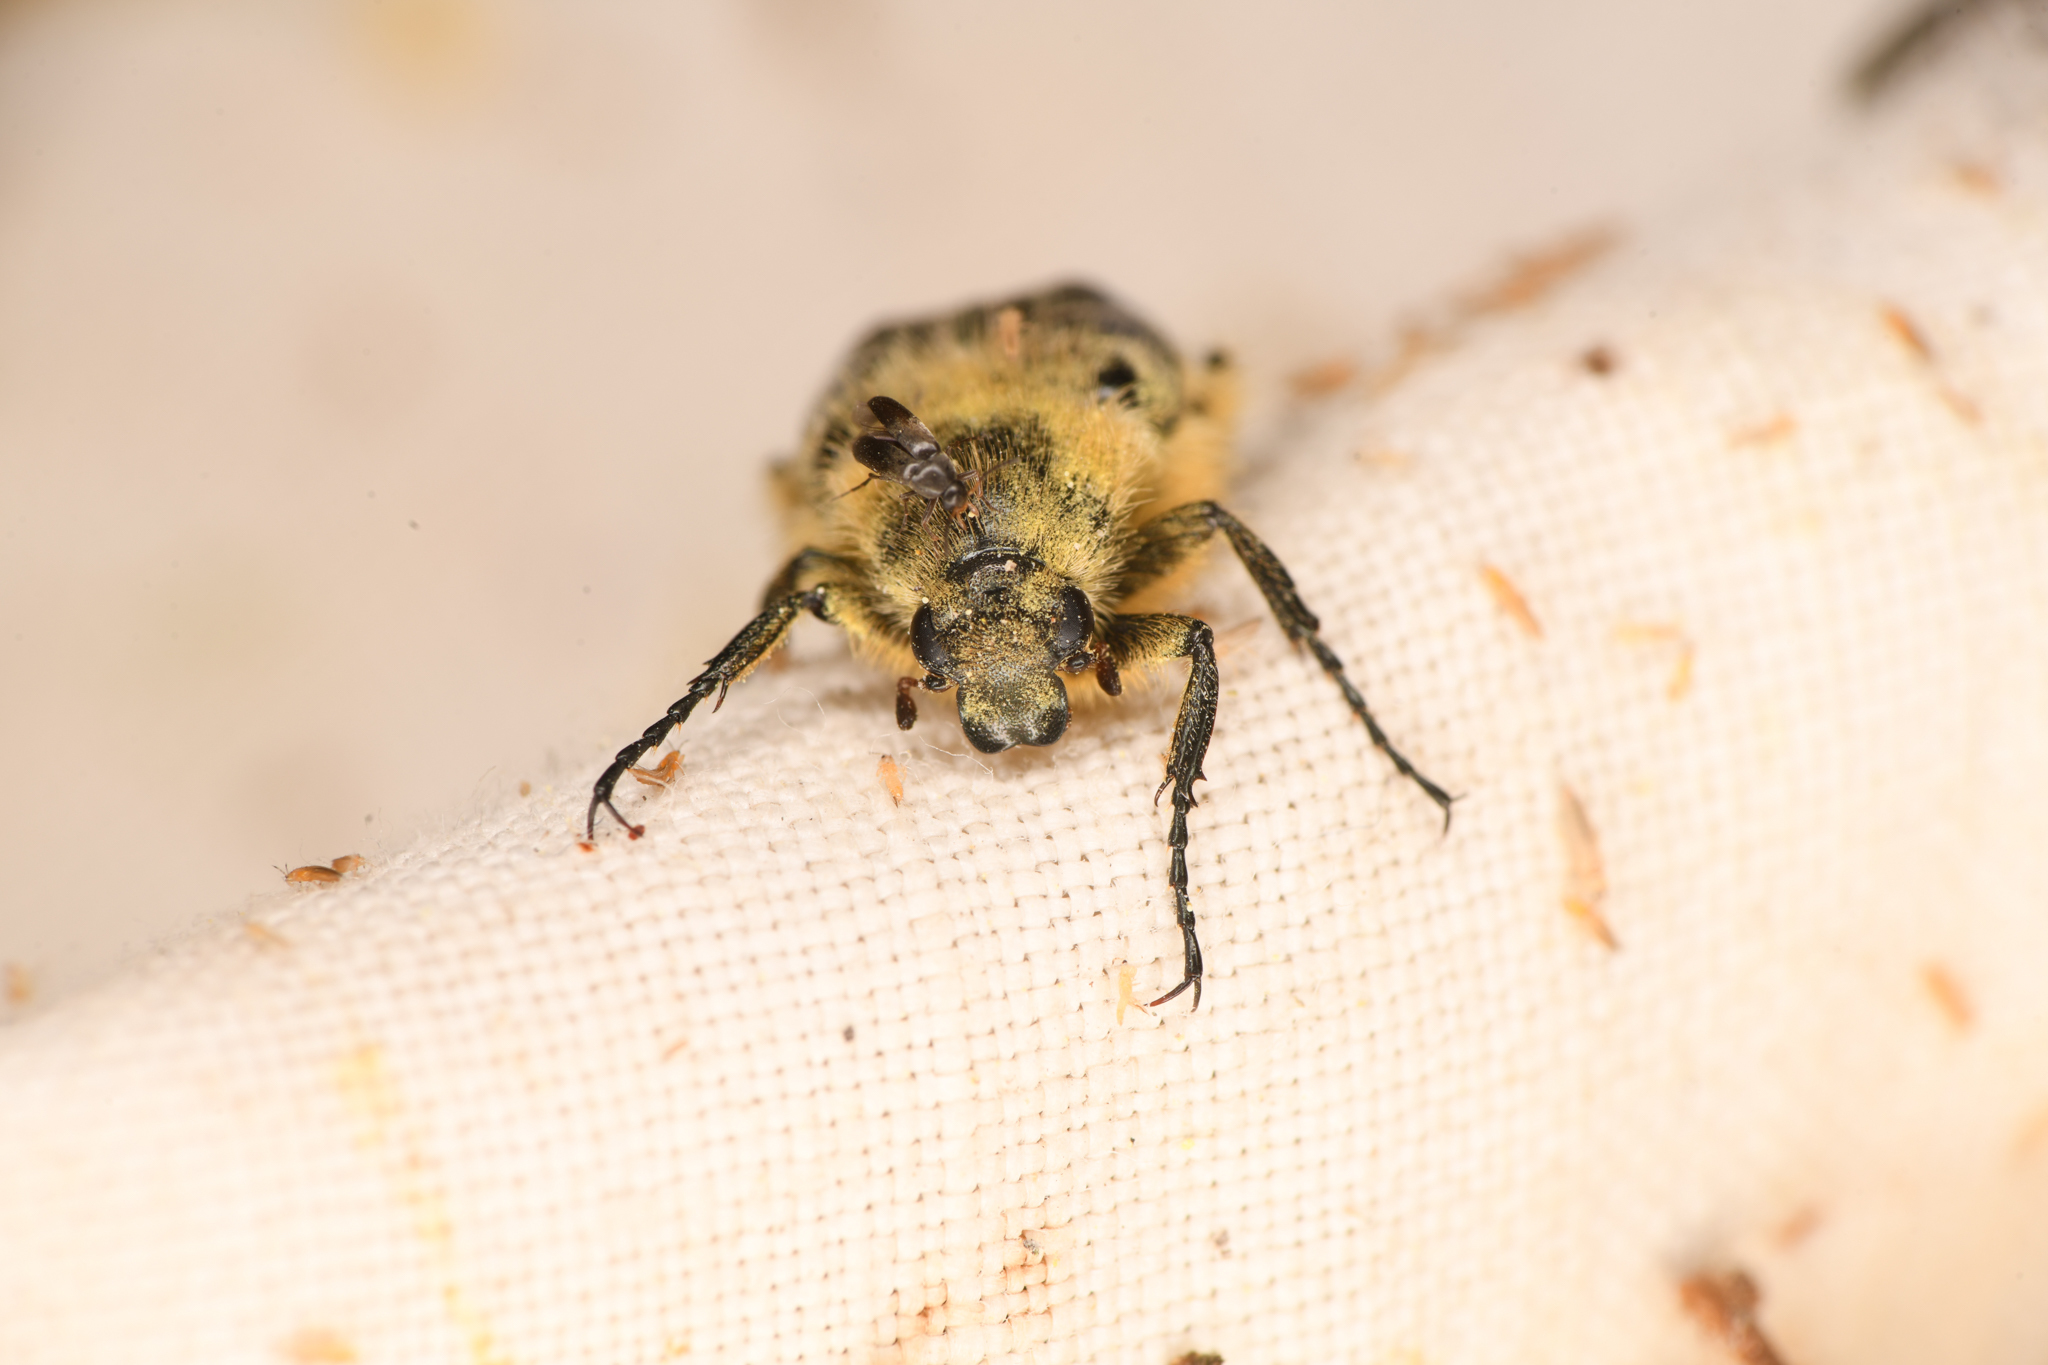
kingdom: Animalia
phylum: Arthropoda
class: Insecta
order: Coleoptera
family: Scarabaeidae
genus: Trichiotinus
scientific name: Trichiotinus assimilis
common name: Bee-mimic beetle
